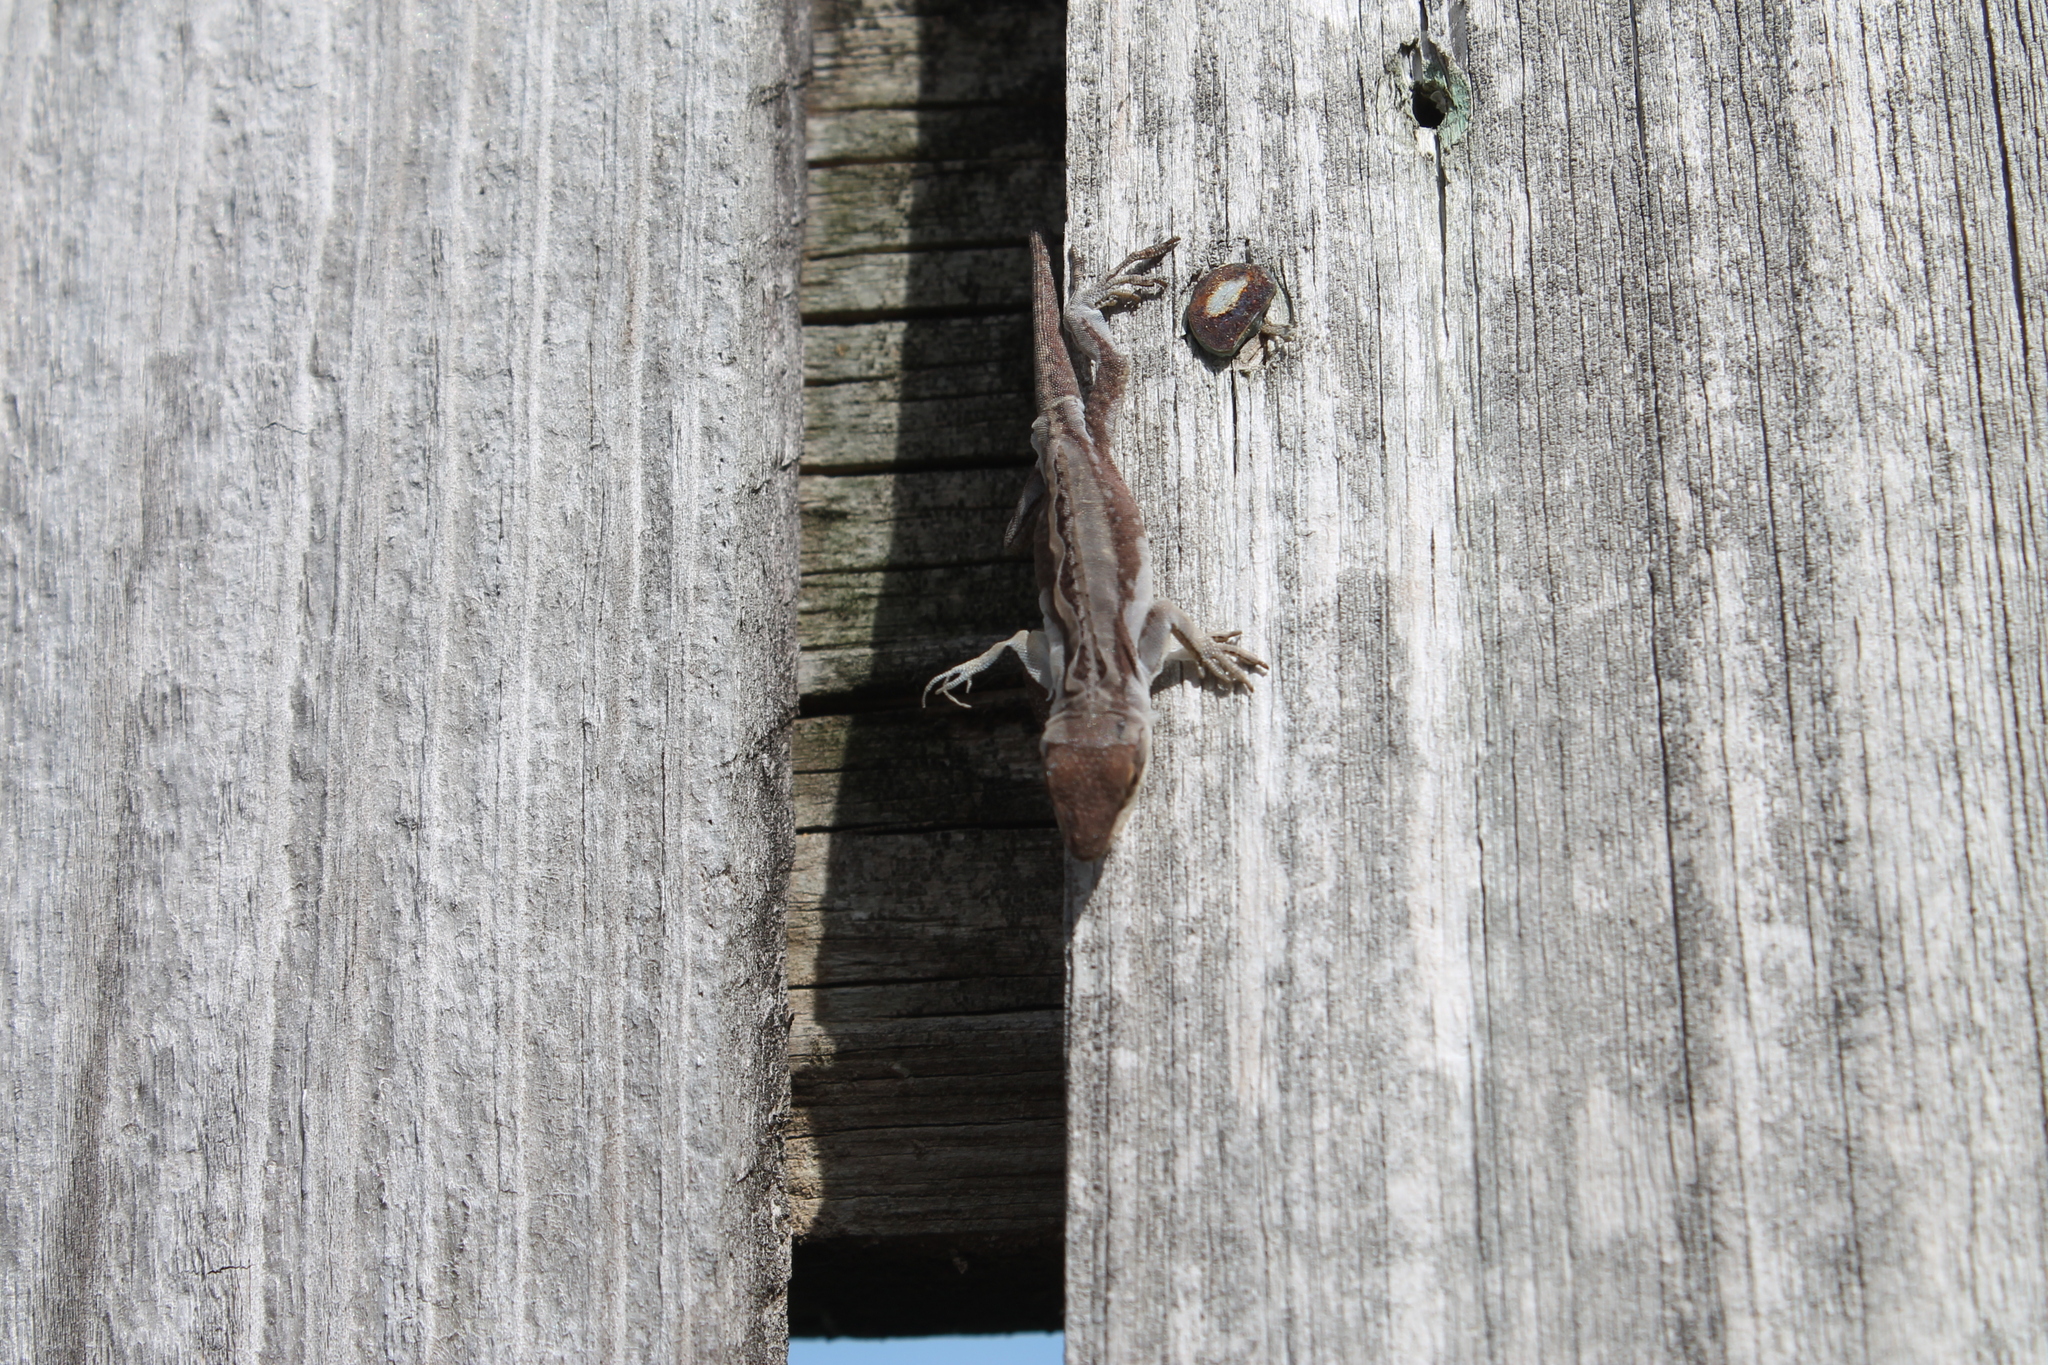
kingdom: Animalia
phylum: Chordata
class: Squamata
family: Dactyloidae
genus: Anolis
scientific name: Anolis carolinensis
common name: Green anole
